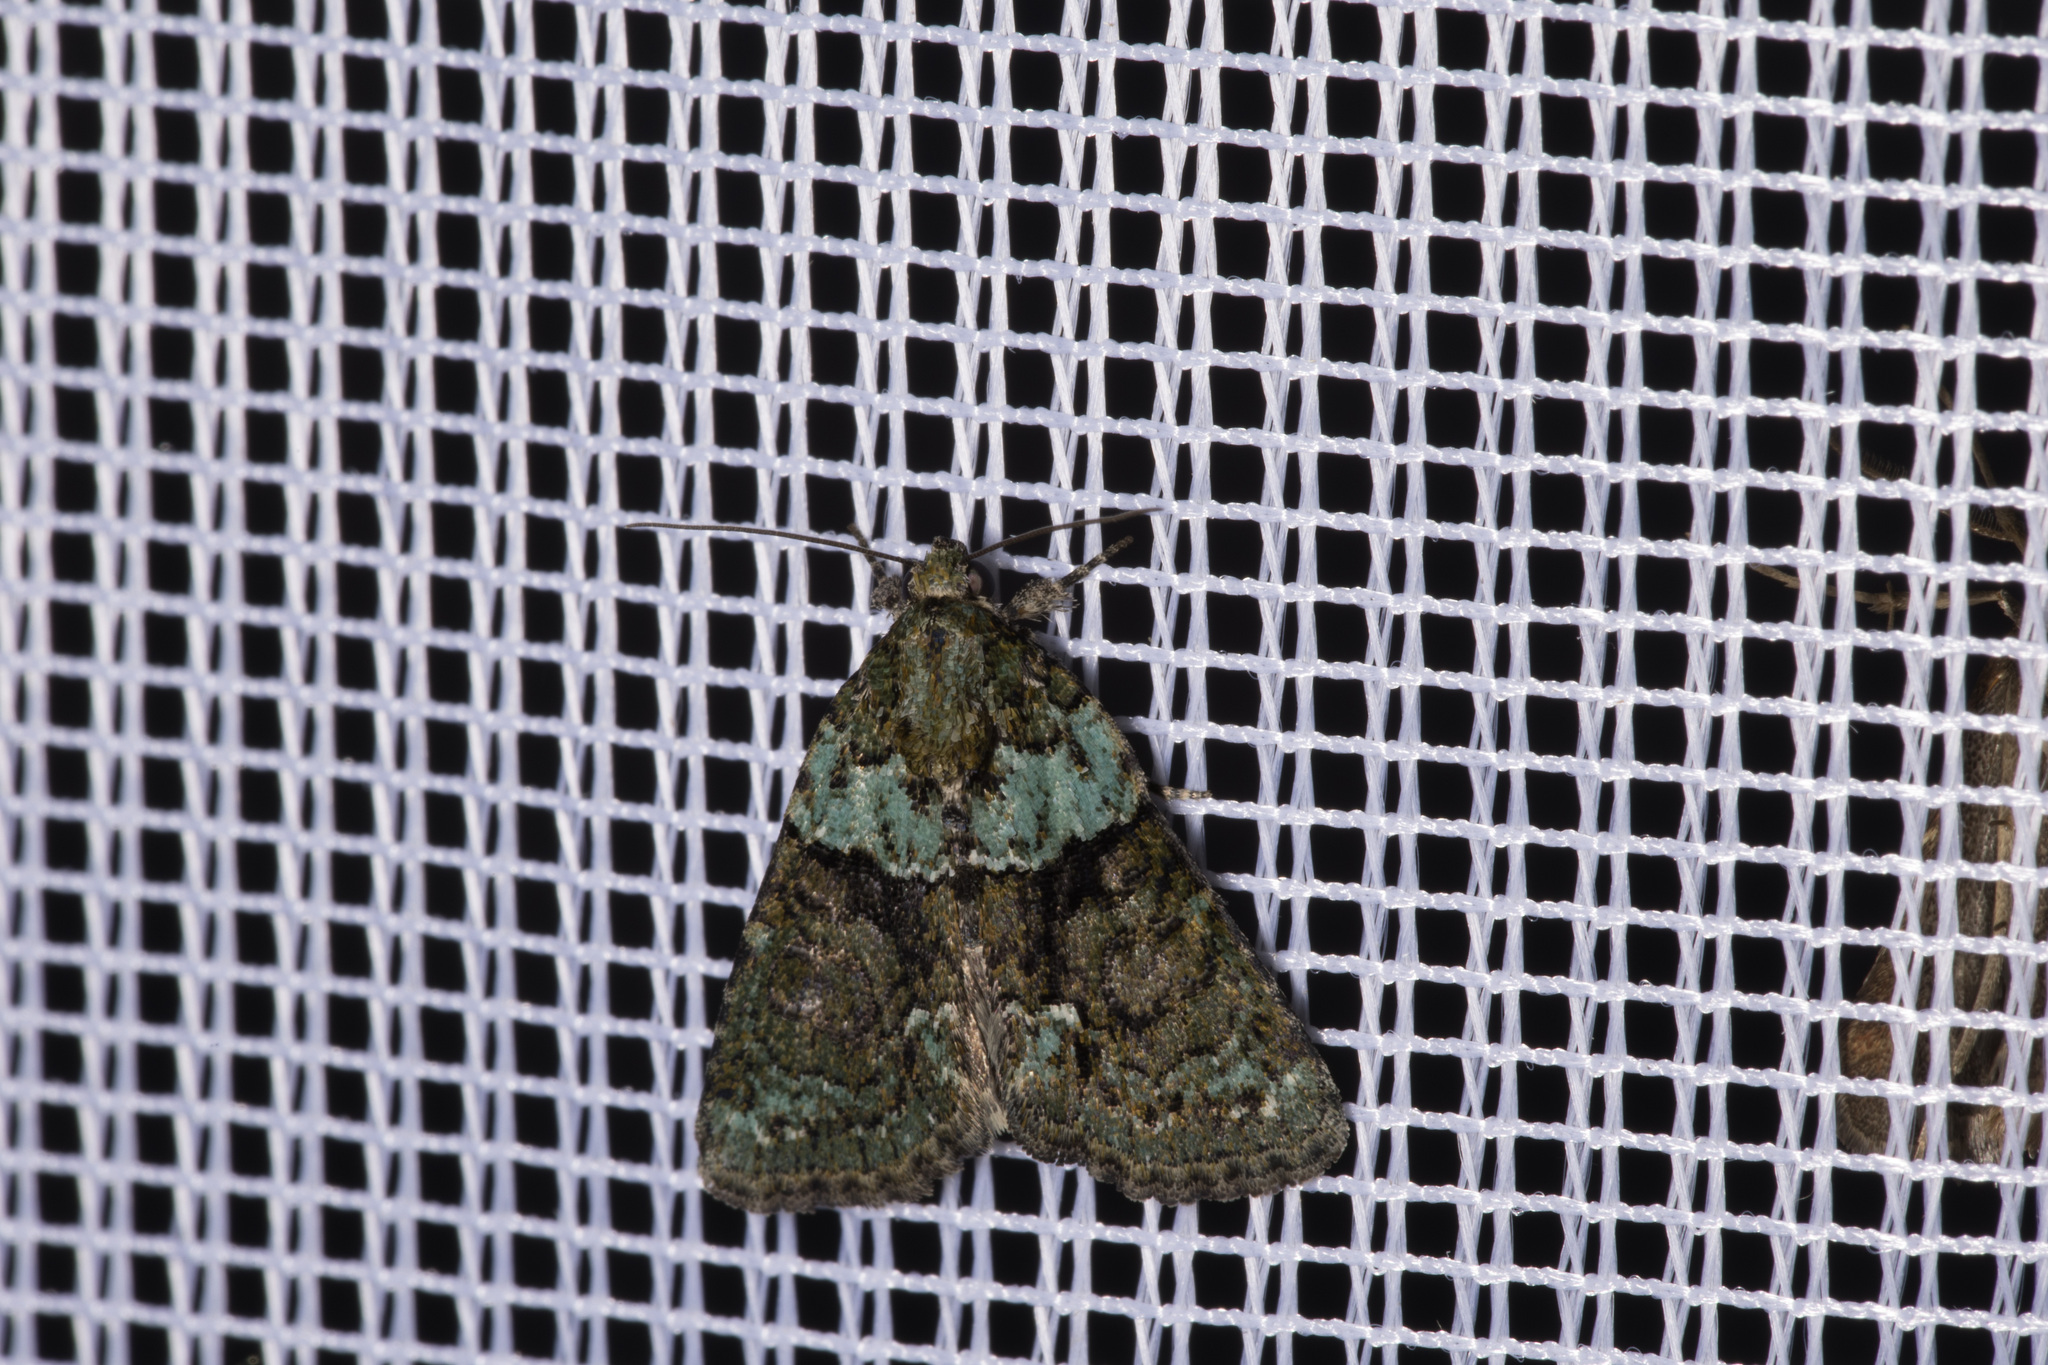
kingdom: Animalia
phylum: Arthropoda
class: Insecta
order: Lepidoptera
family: Noctuidae
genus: Cryphia
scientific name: Cryphia algae
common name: Tree-lichen beauty
